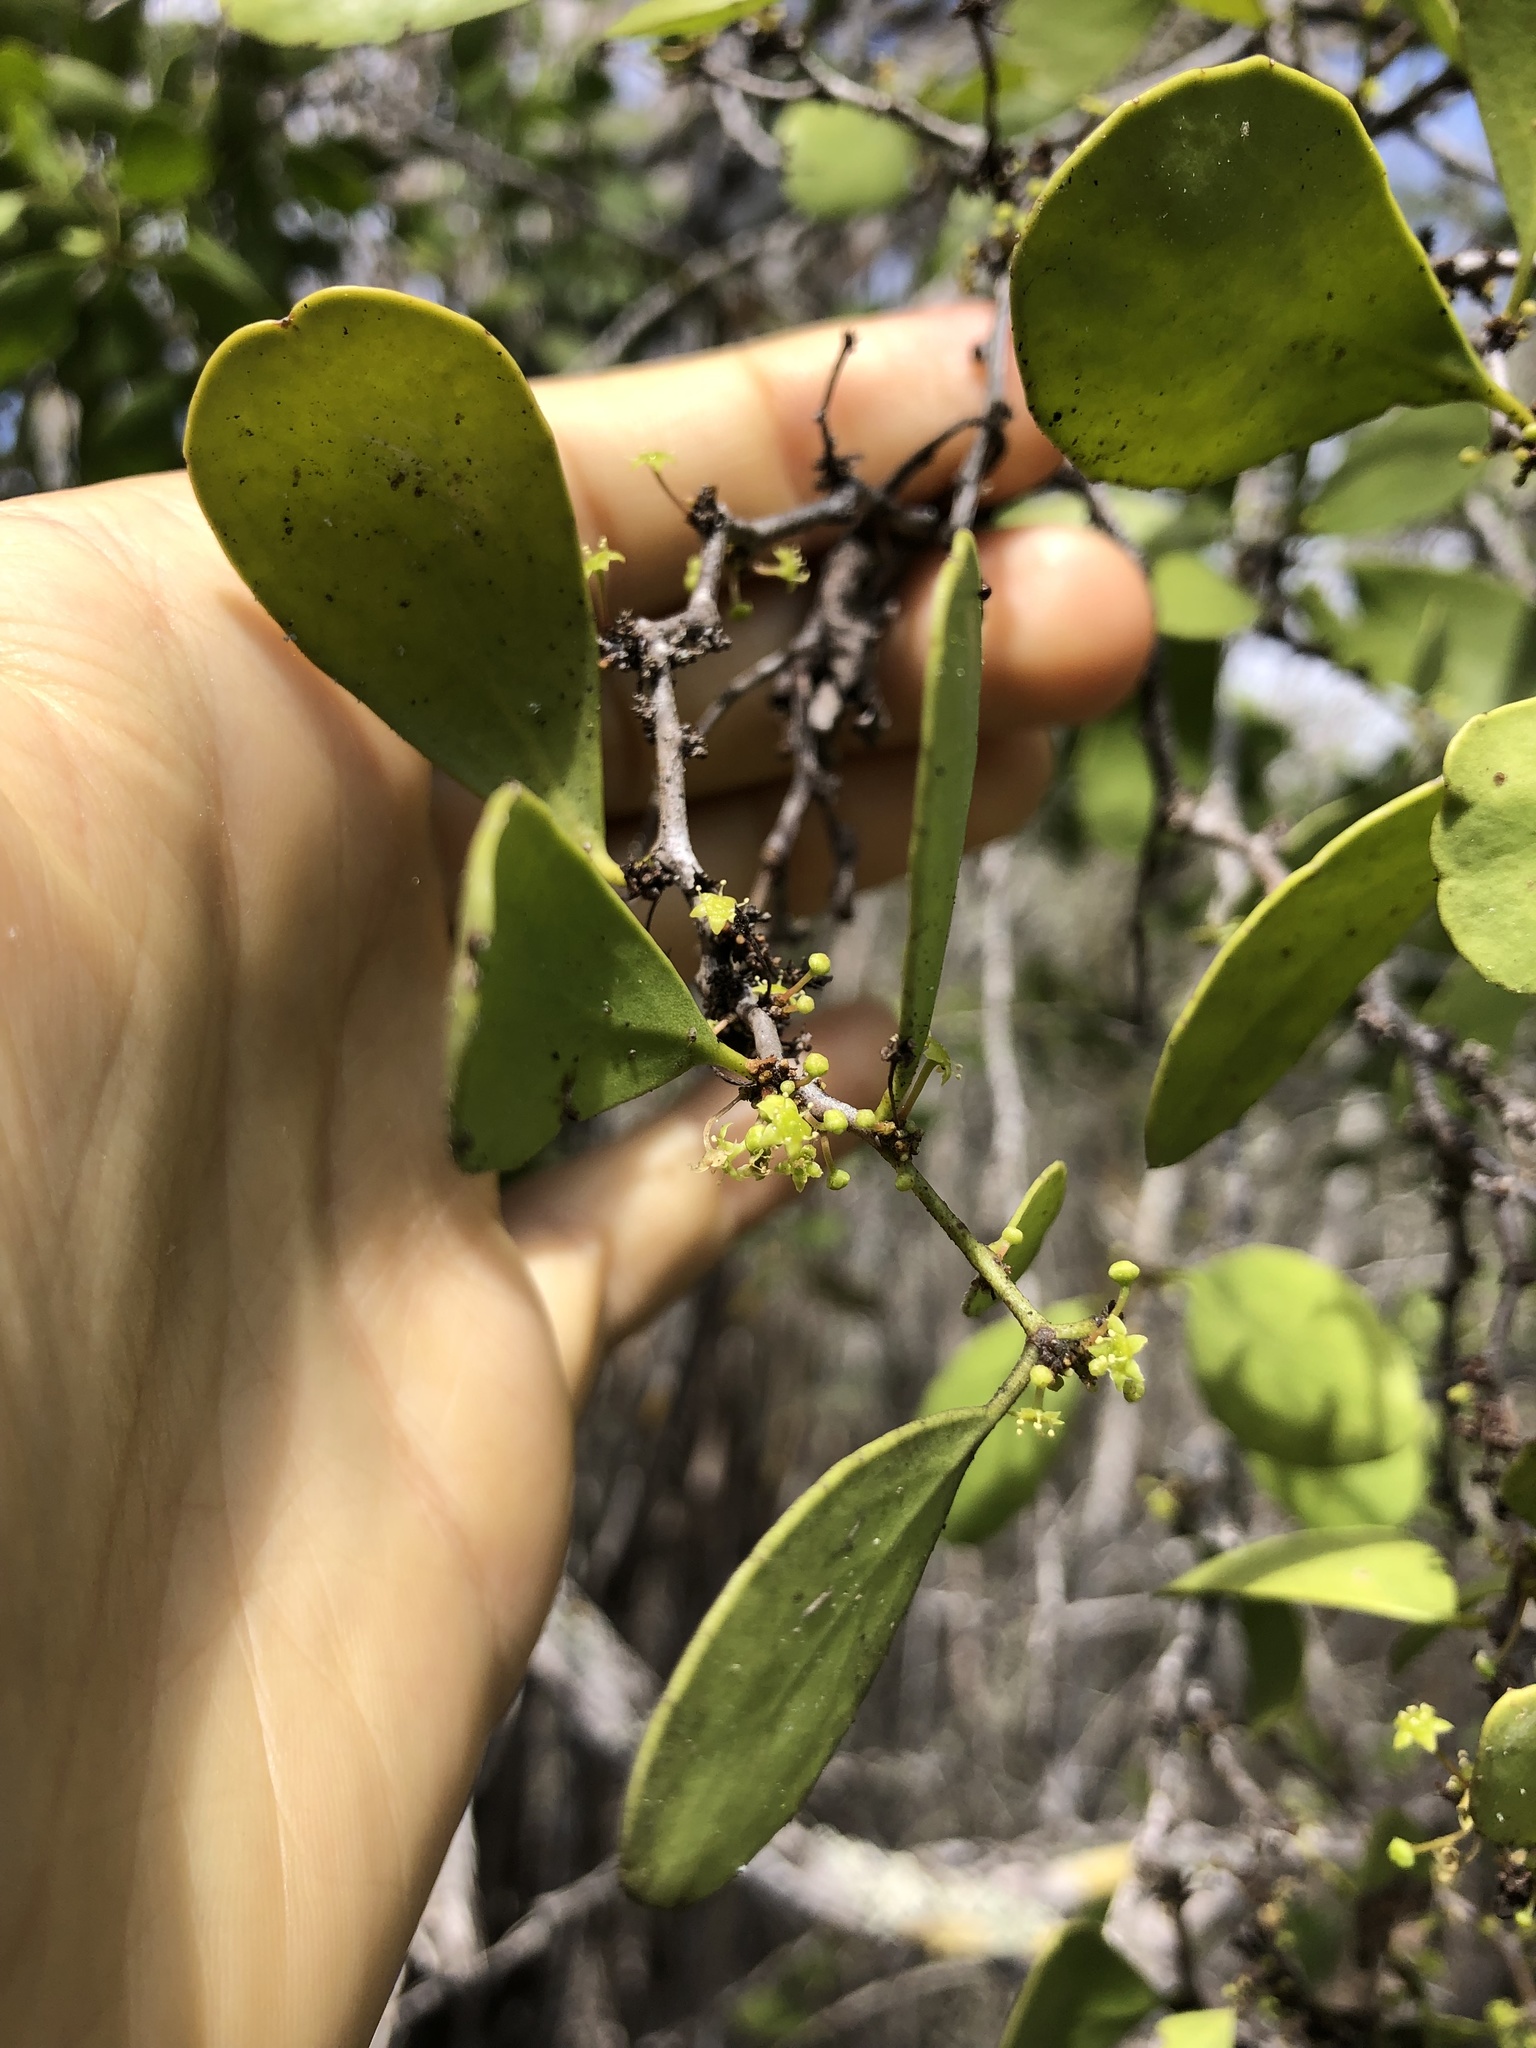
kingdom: Plantae
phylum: Tracheophyta
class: Magnoliopsida
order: Celastrales
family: Celastraceae
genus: Tricerma
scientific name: Tricerma octogonum
